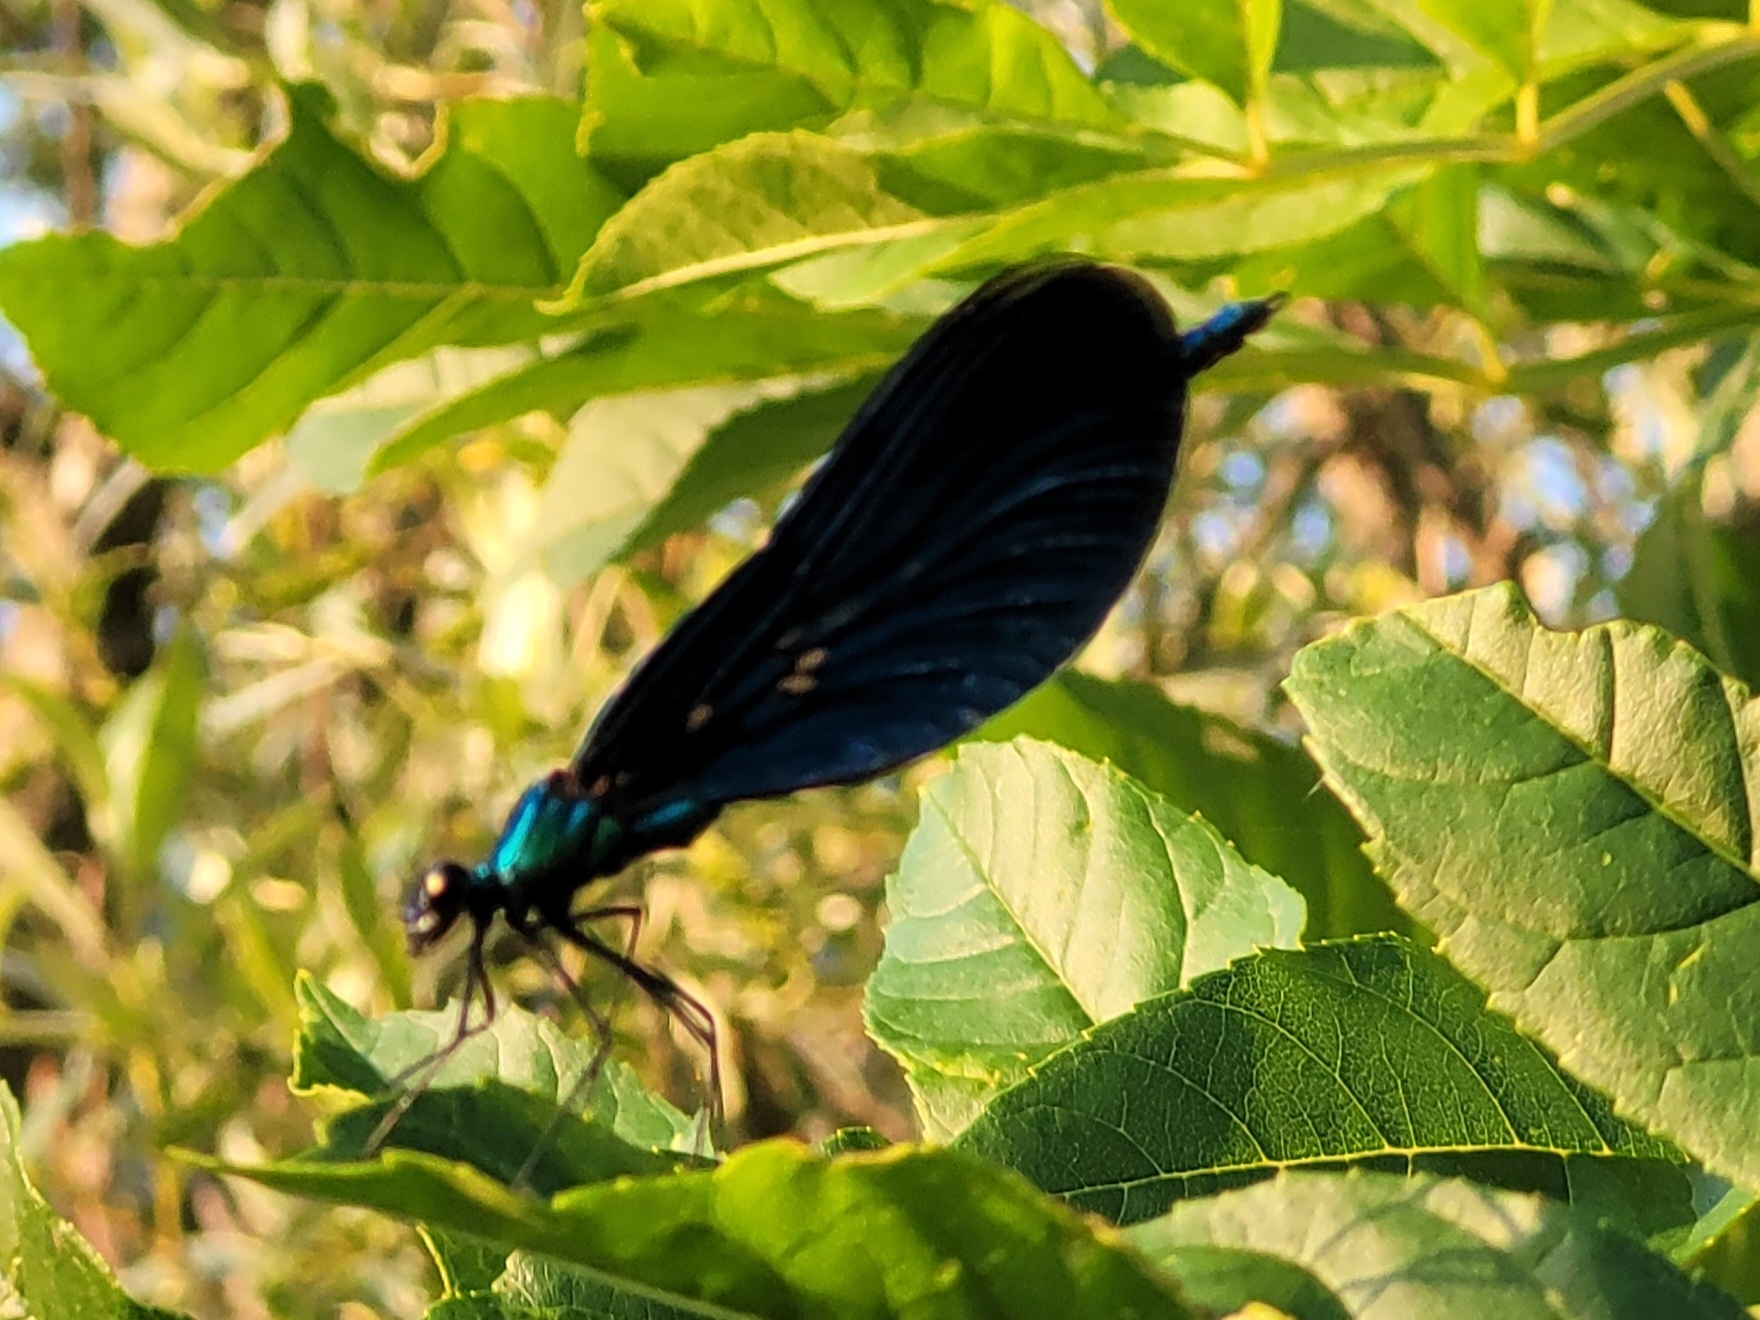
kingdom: Animalia
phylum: Arthropoda
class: Insecta
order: Odonata
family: Calopterygidae
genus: Calopteryx
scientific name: Calopteryx virgo
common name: Beautiful demoiselle
